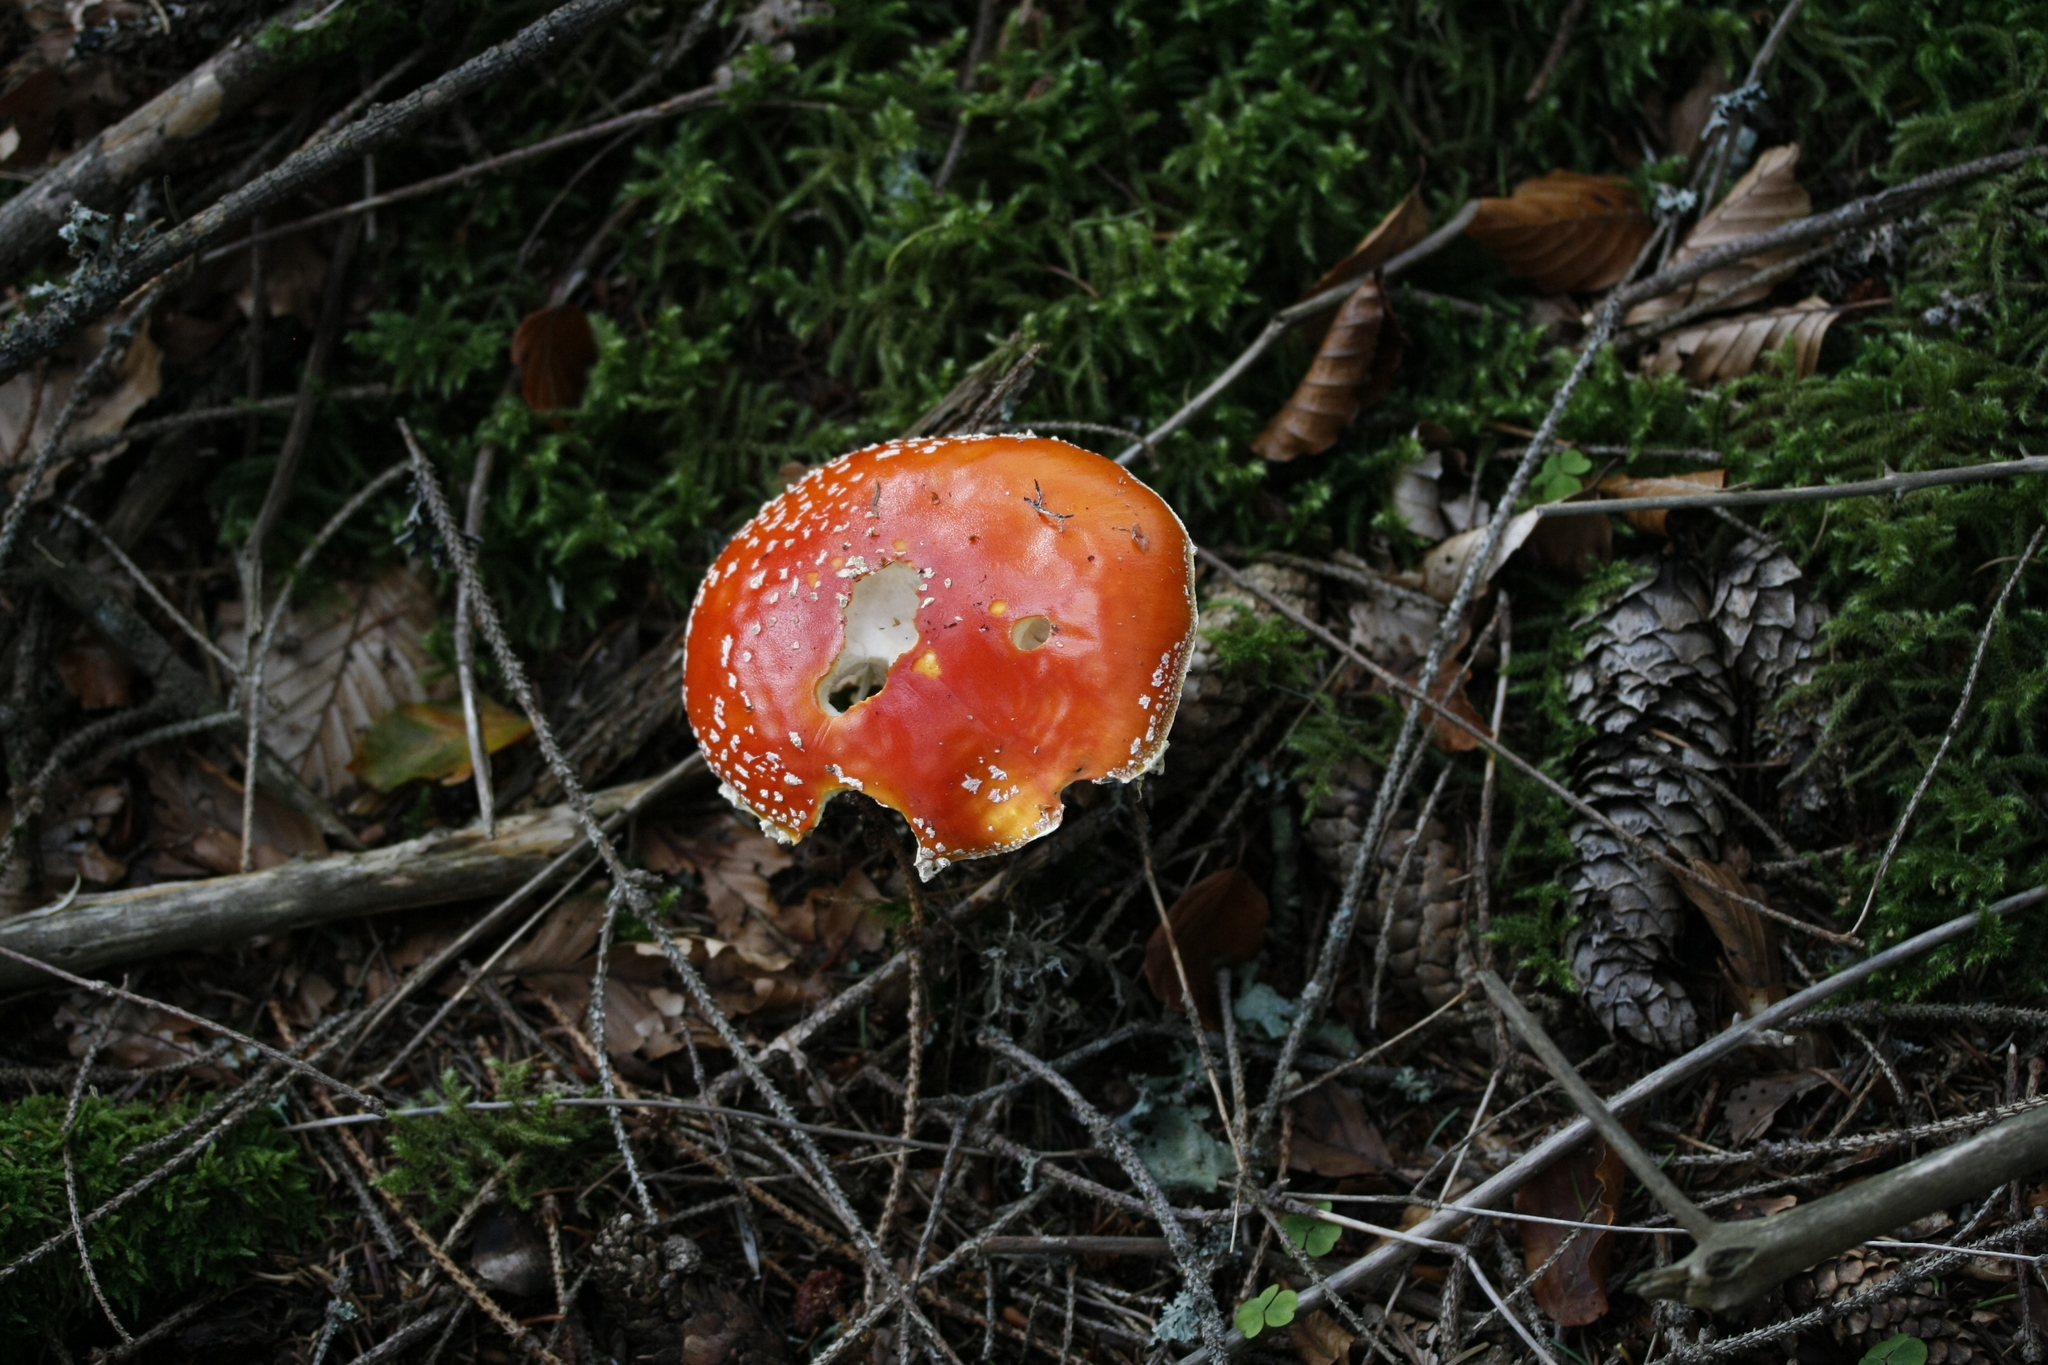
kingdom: Fungi
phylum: Basidiomycota
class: Agaricomycetes
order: Agaricales
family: Amanitaceae
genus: Amanita
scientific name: Amanita muscaria
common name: Fly agaric
